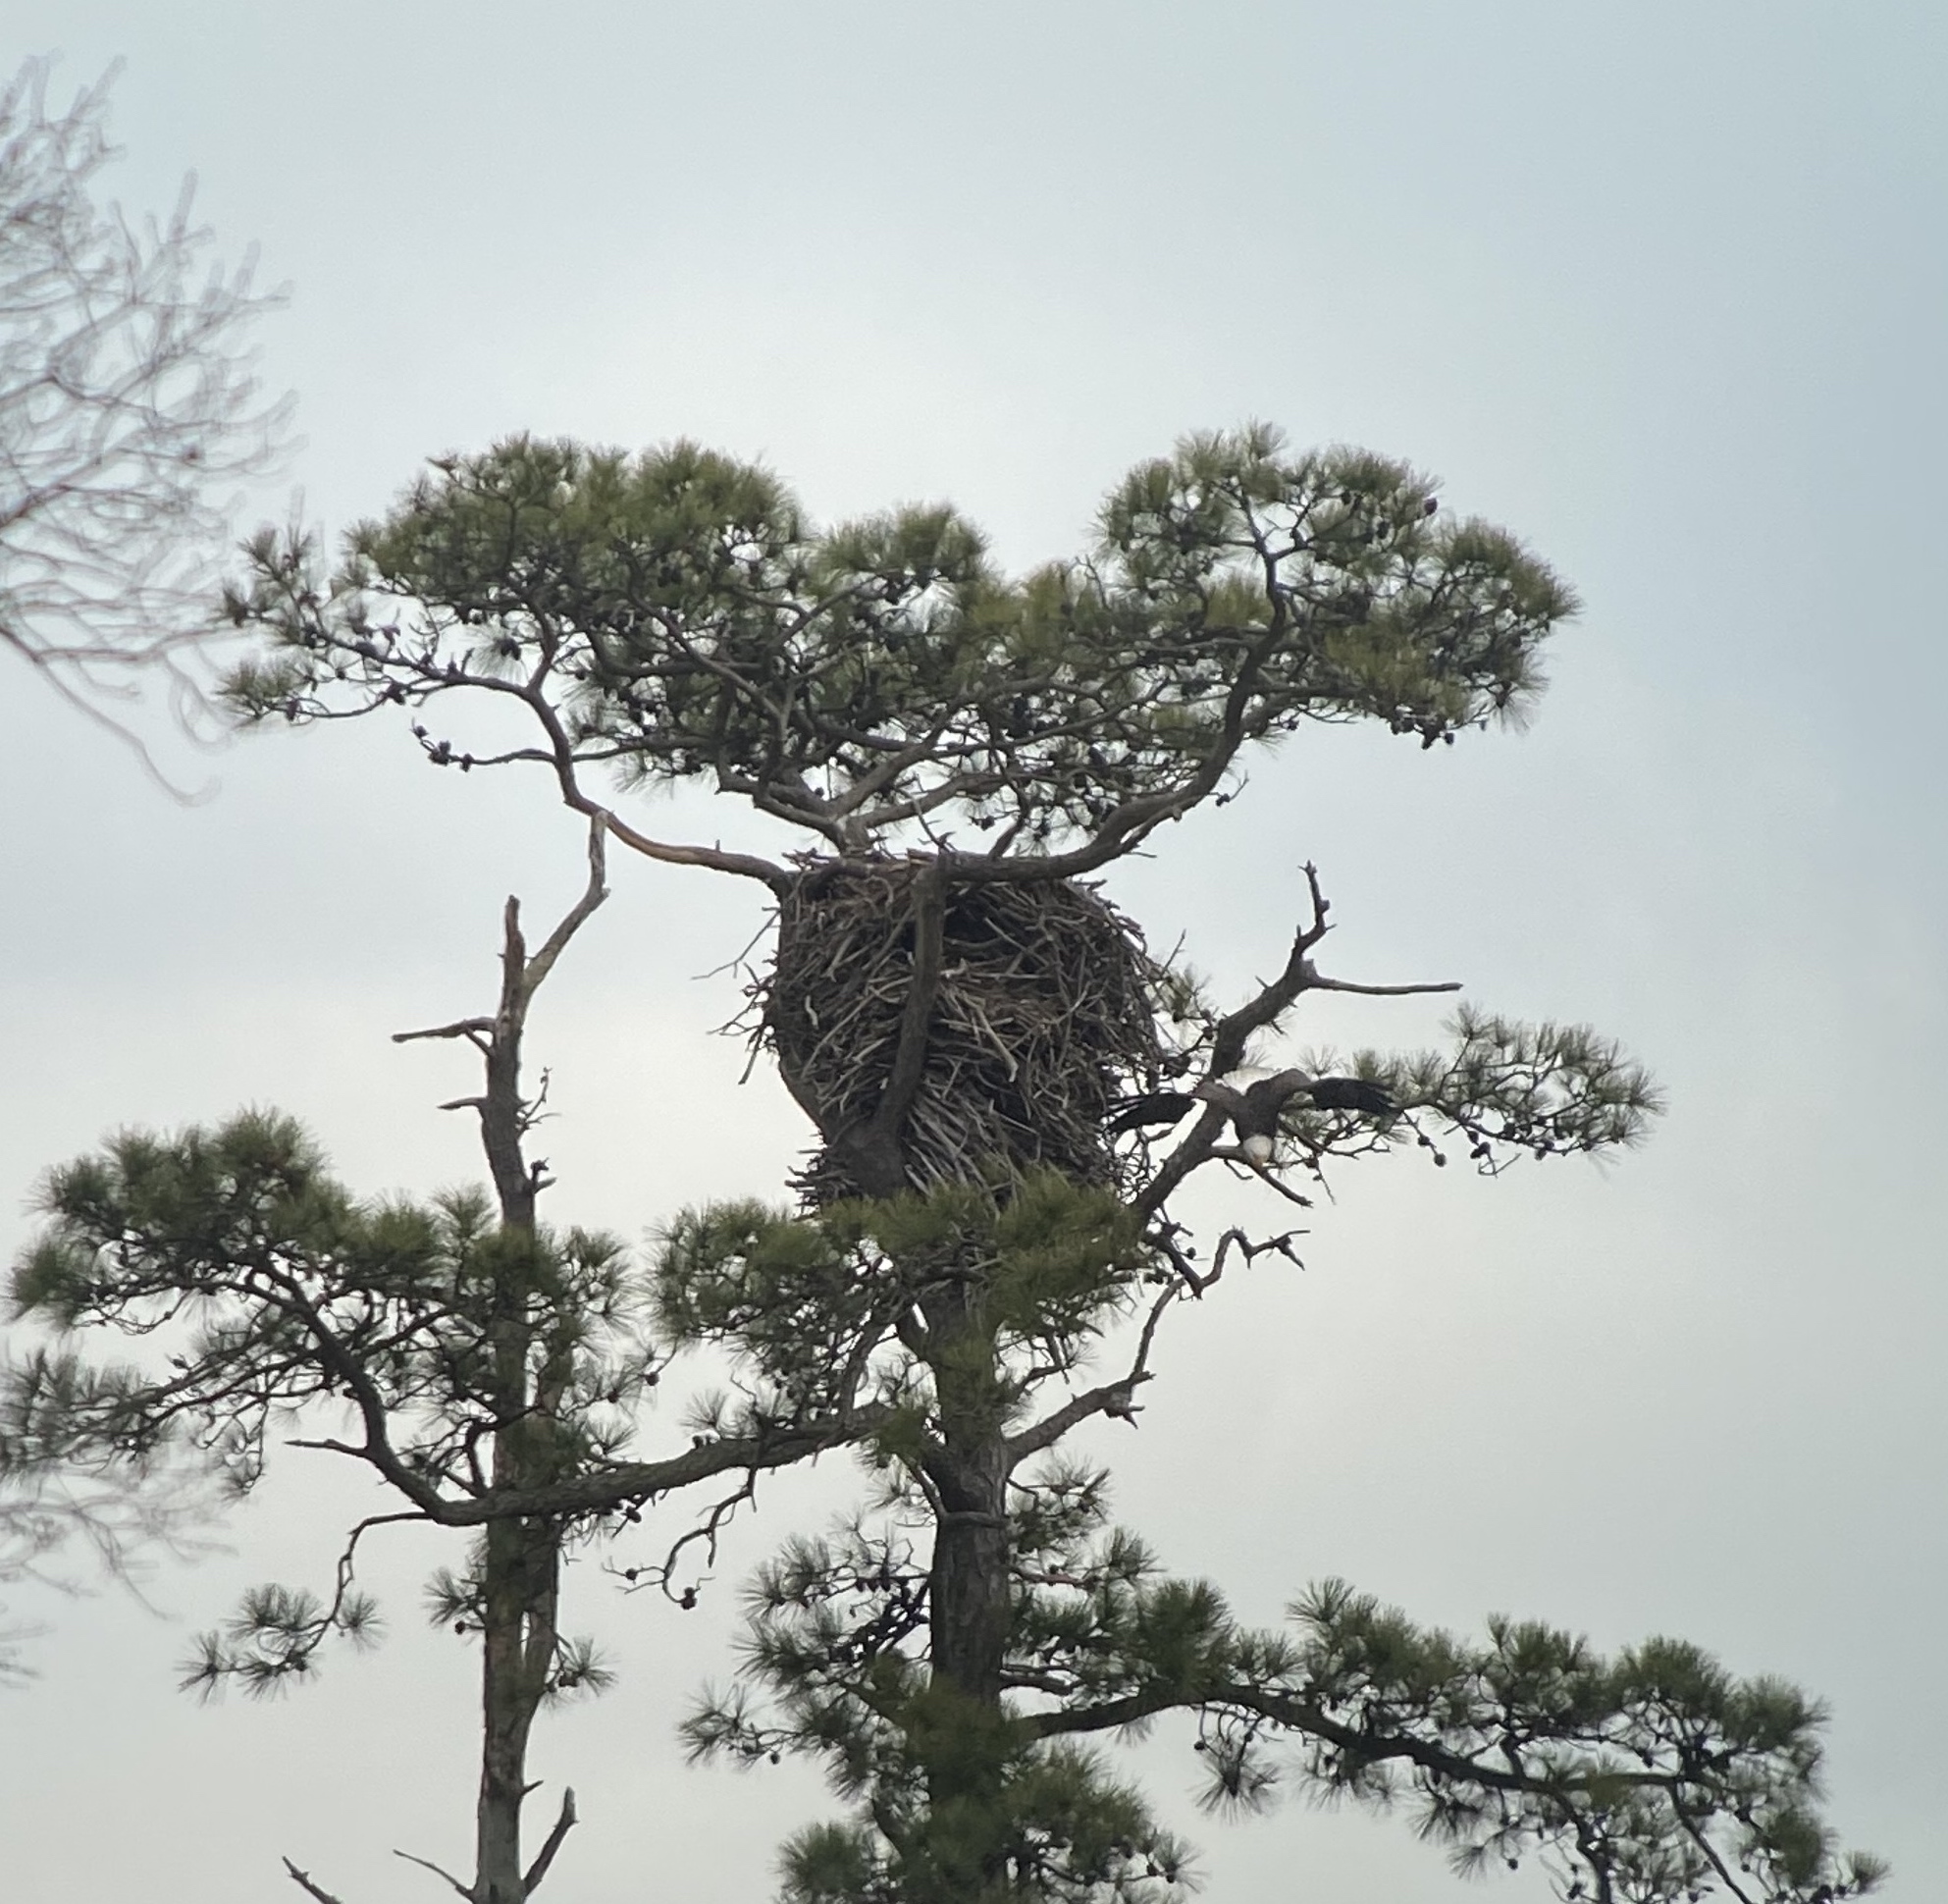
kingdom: Animalia
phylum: Chordata
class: Aves
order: Accipitriformes
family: Accipitridae
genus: Haliaeetus
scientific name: Haliaeetus leucocephalus
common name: Bald eagle
